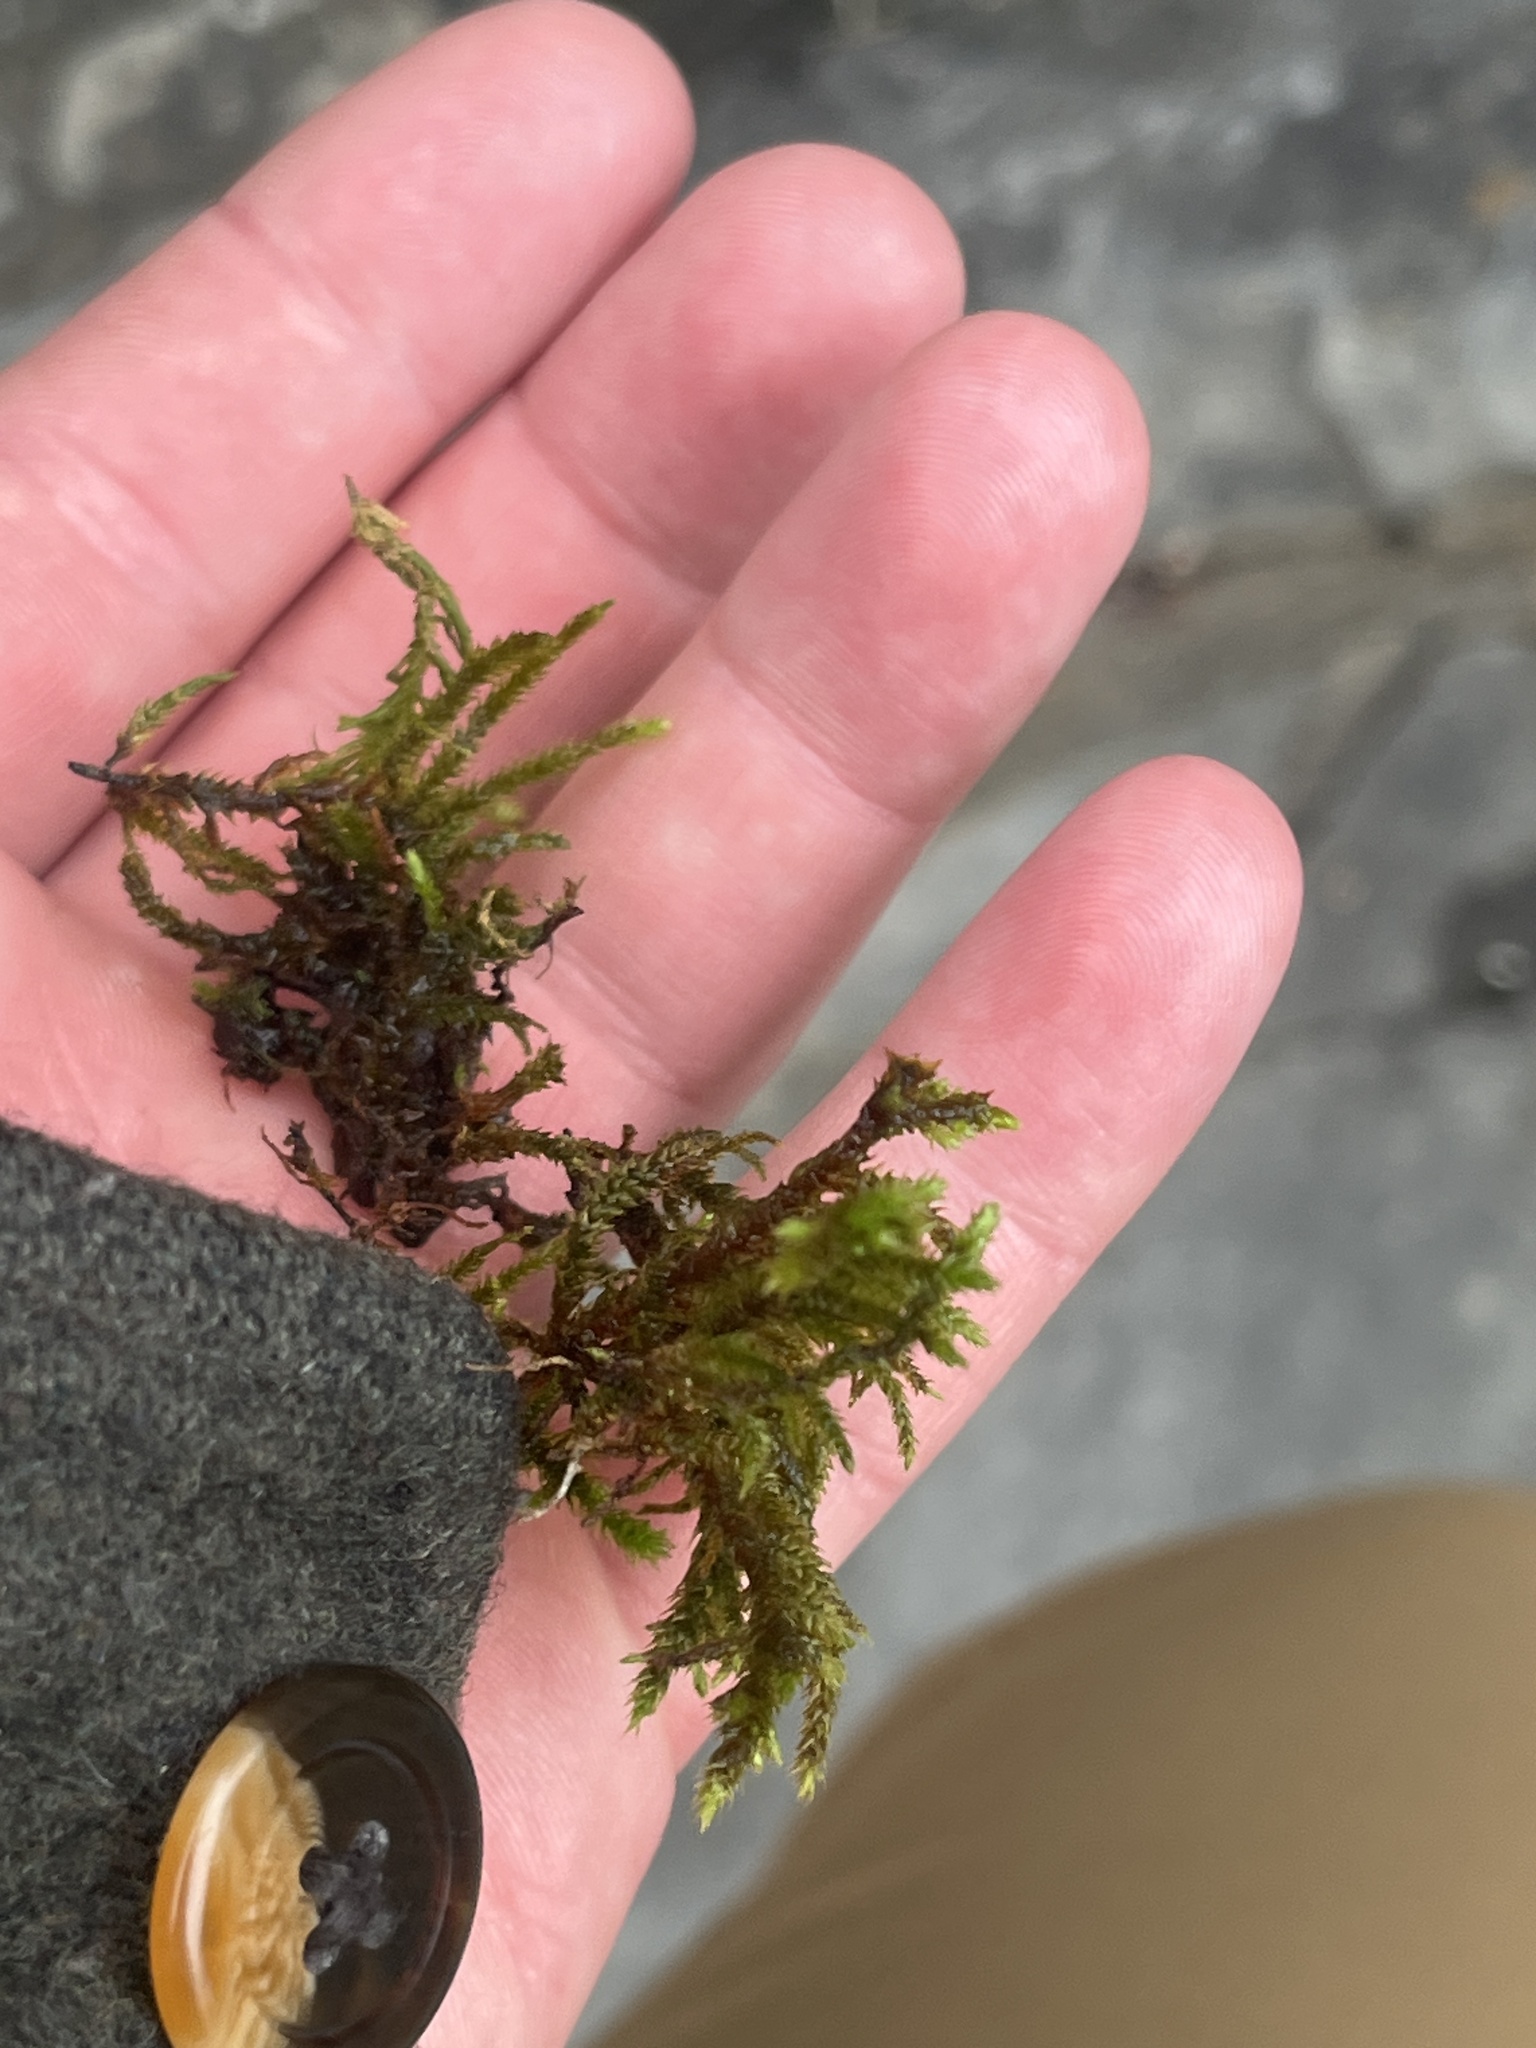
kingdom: Plantae
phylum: Bryophyta
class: Bryopsida
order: Hypnales
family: Antitrichiaceae
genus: Antitrichia
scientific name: Antitrichia californica
